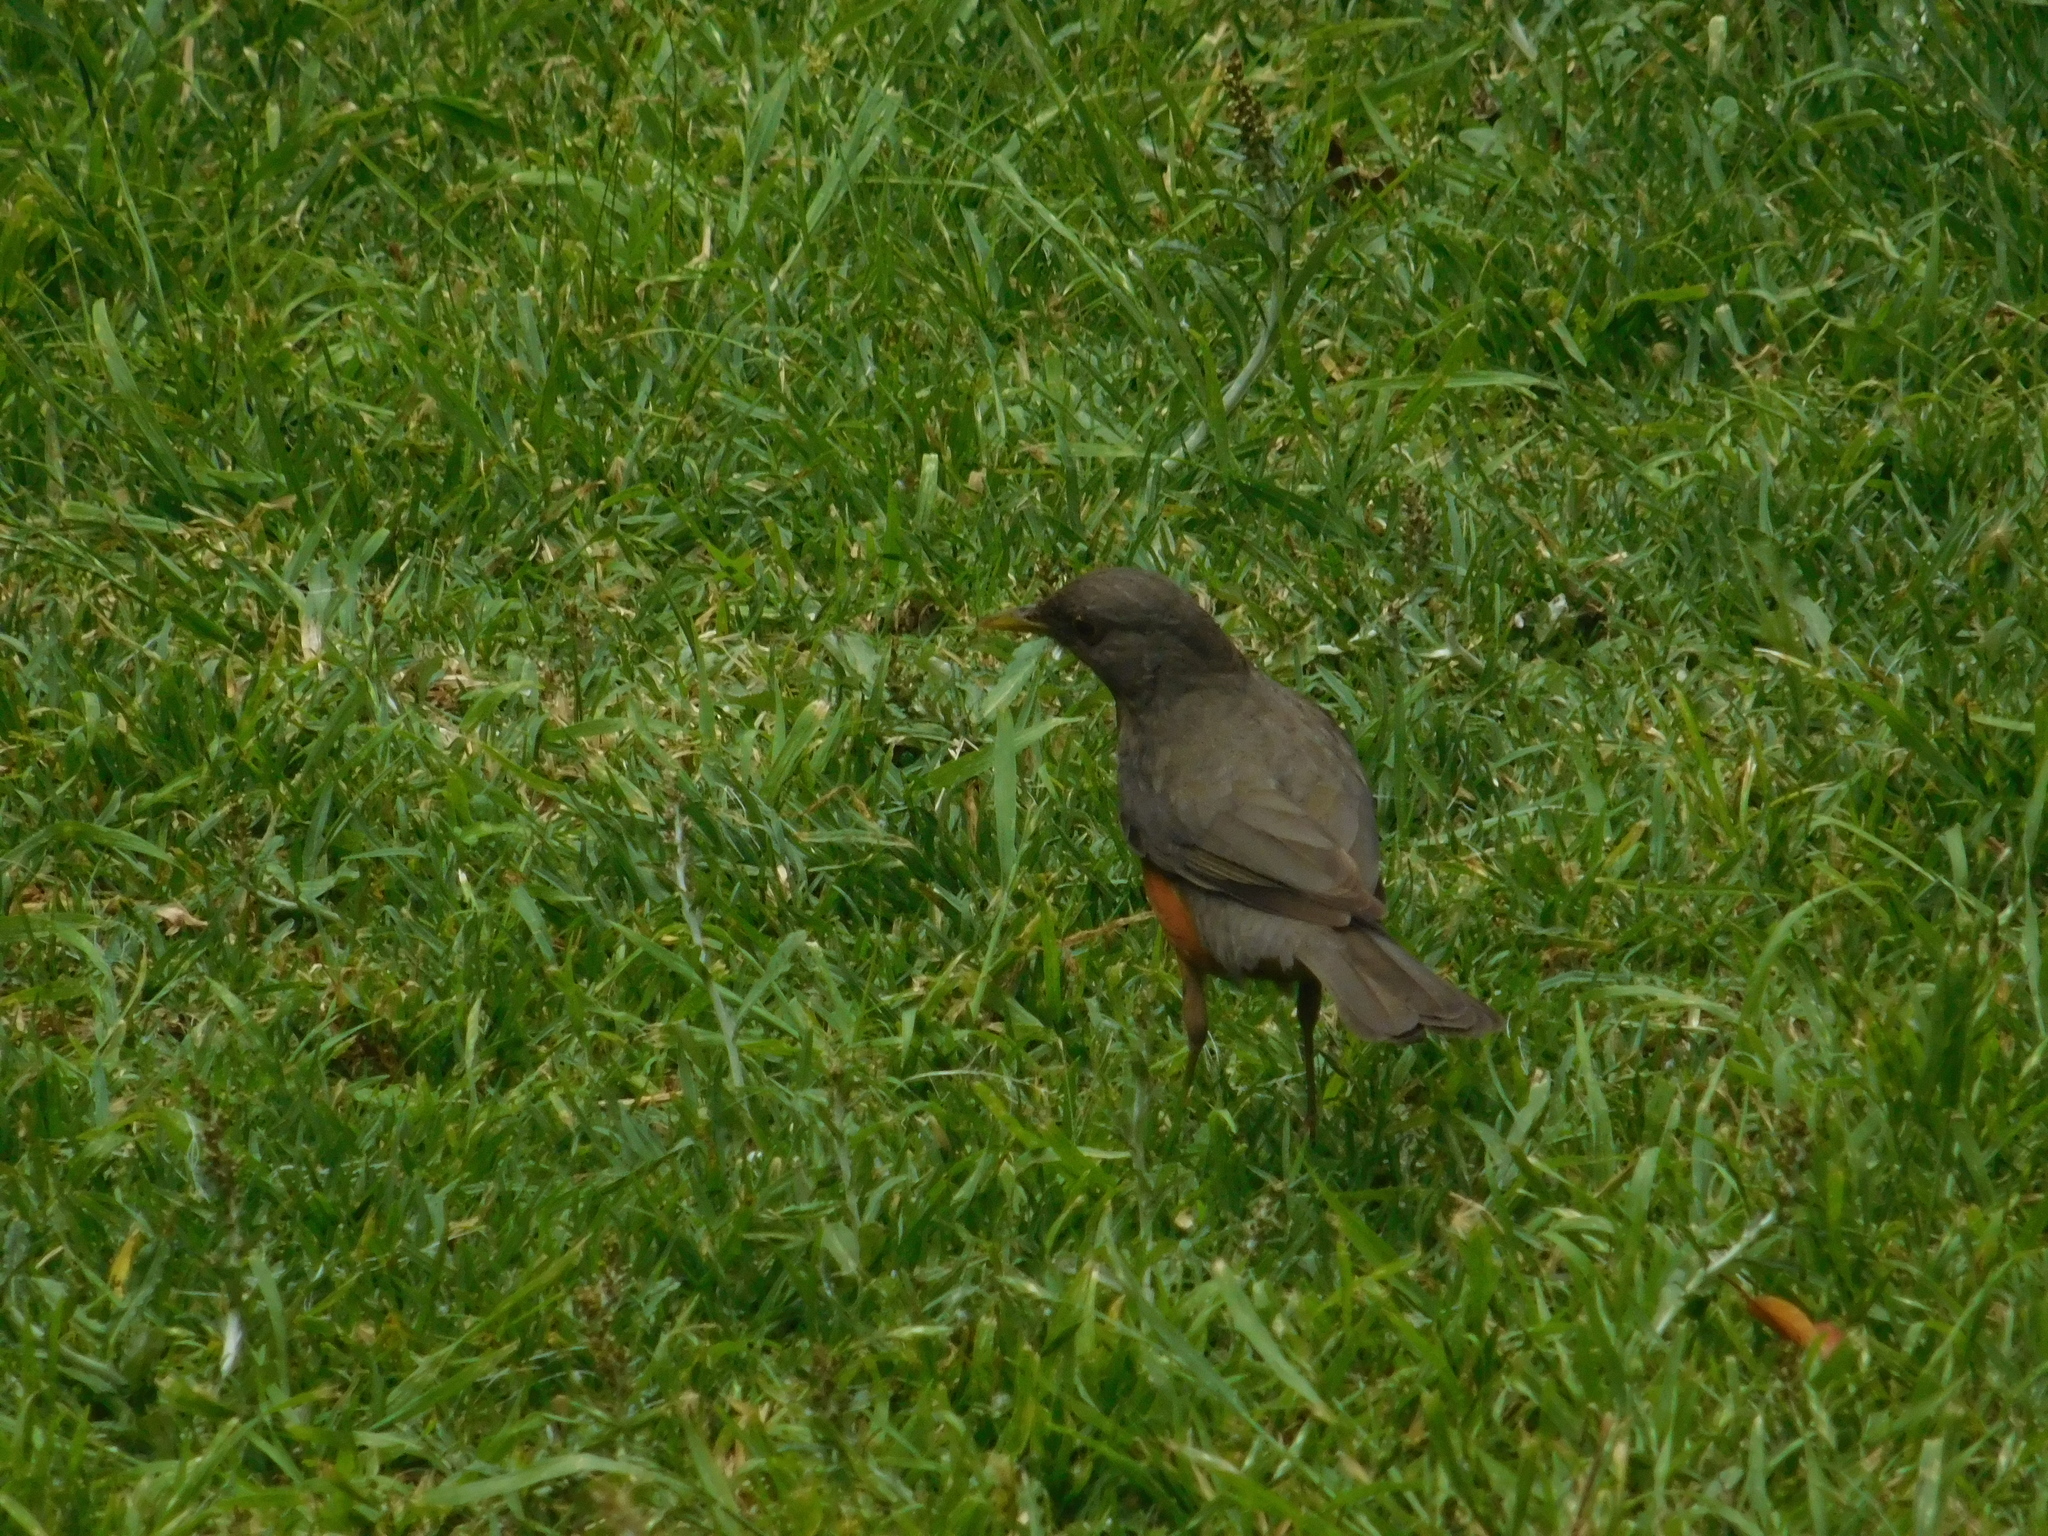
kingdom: Animalia
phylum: Chordata
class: Aves
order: Passeriformes
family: Turdidae
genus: Turdus
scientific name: Turdus rufiventris
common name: Rufous-bellied thrush
